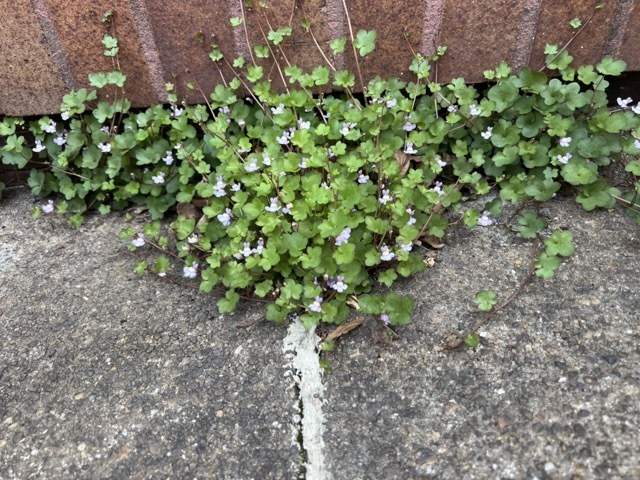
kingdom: Plantae
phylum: Tracheophyta
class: Magnoliopsida
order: Lamiales
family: Plantaginaceae
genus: Cymbalaria
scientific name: Cymbalaria muralis
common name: Ivy-leaved toadflax
